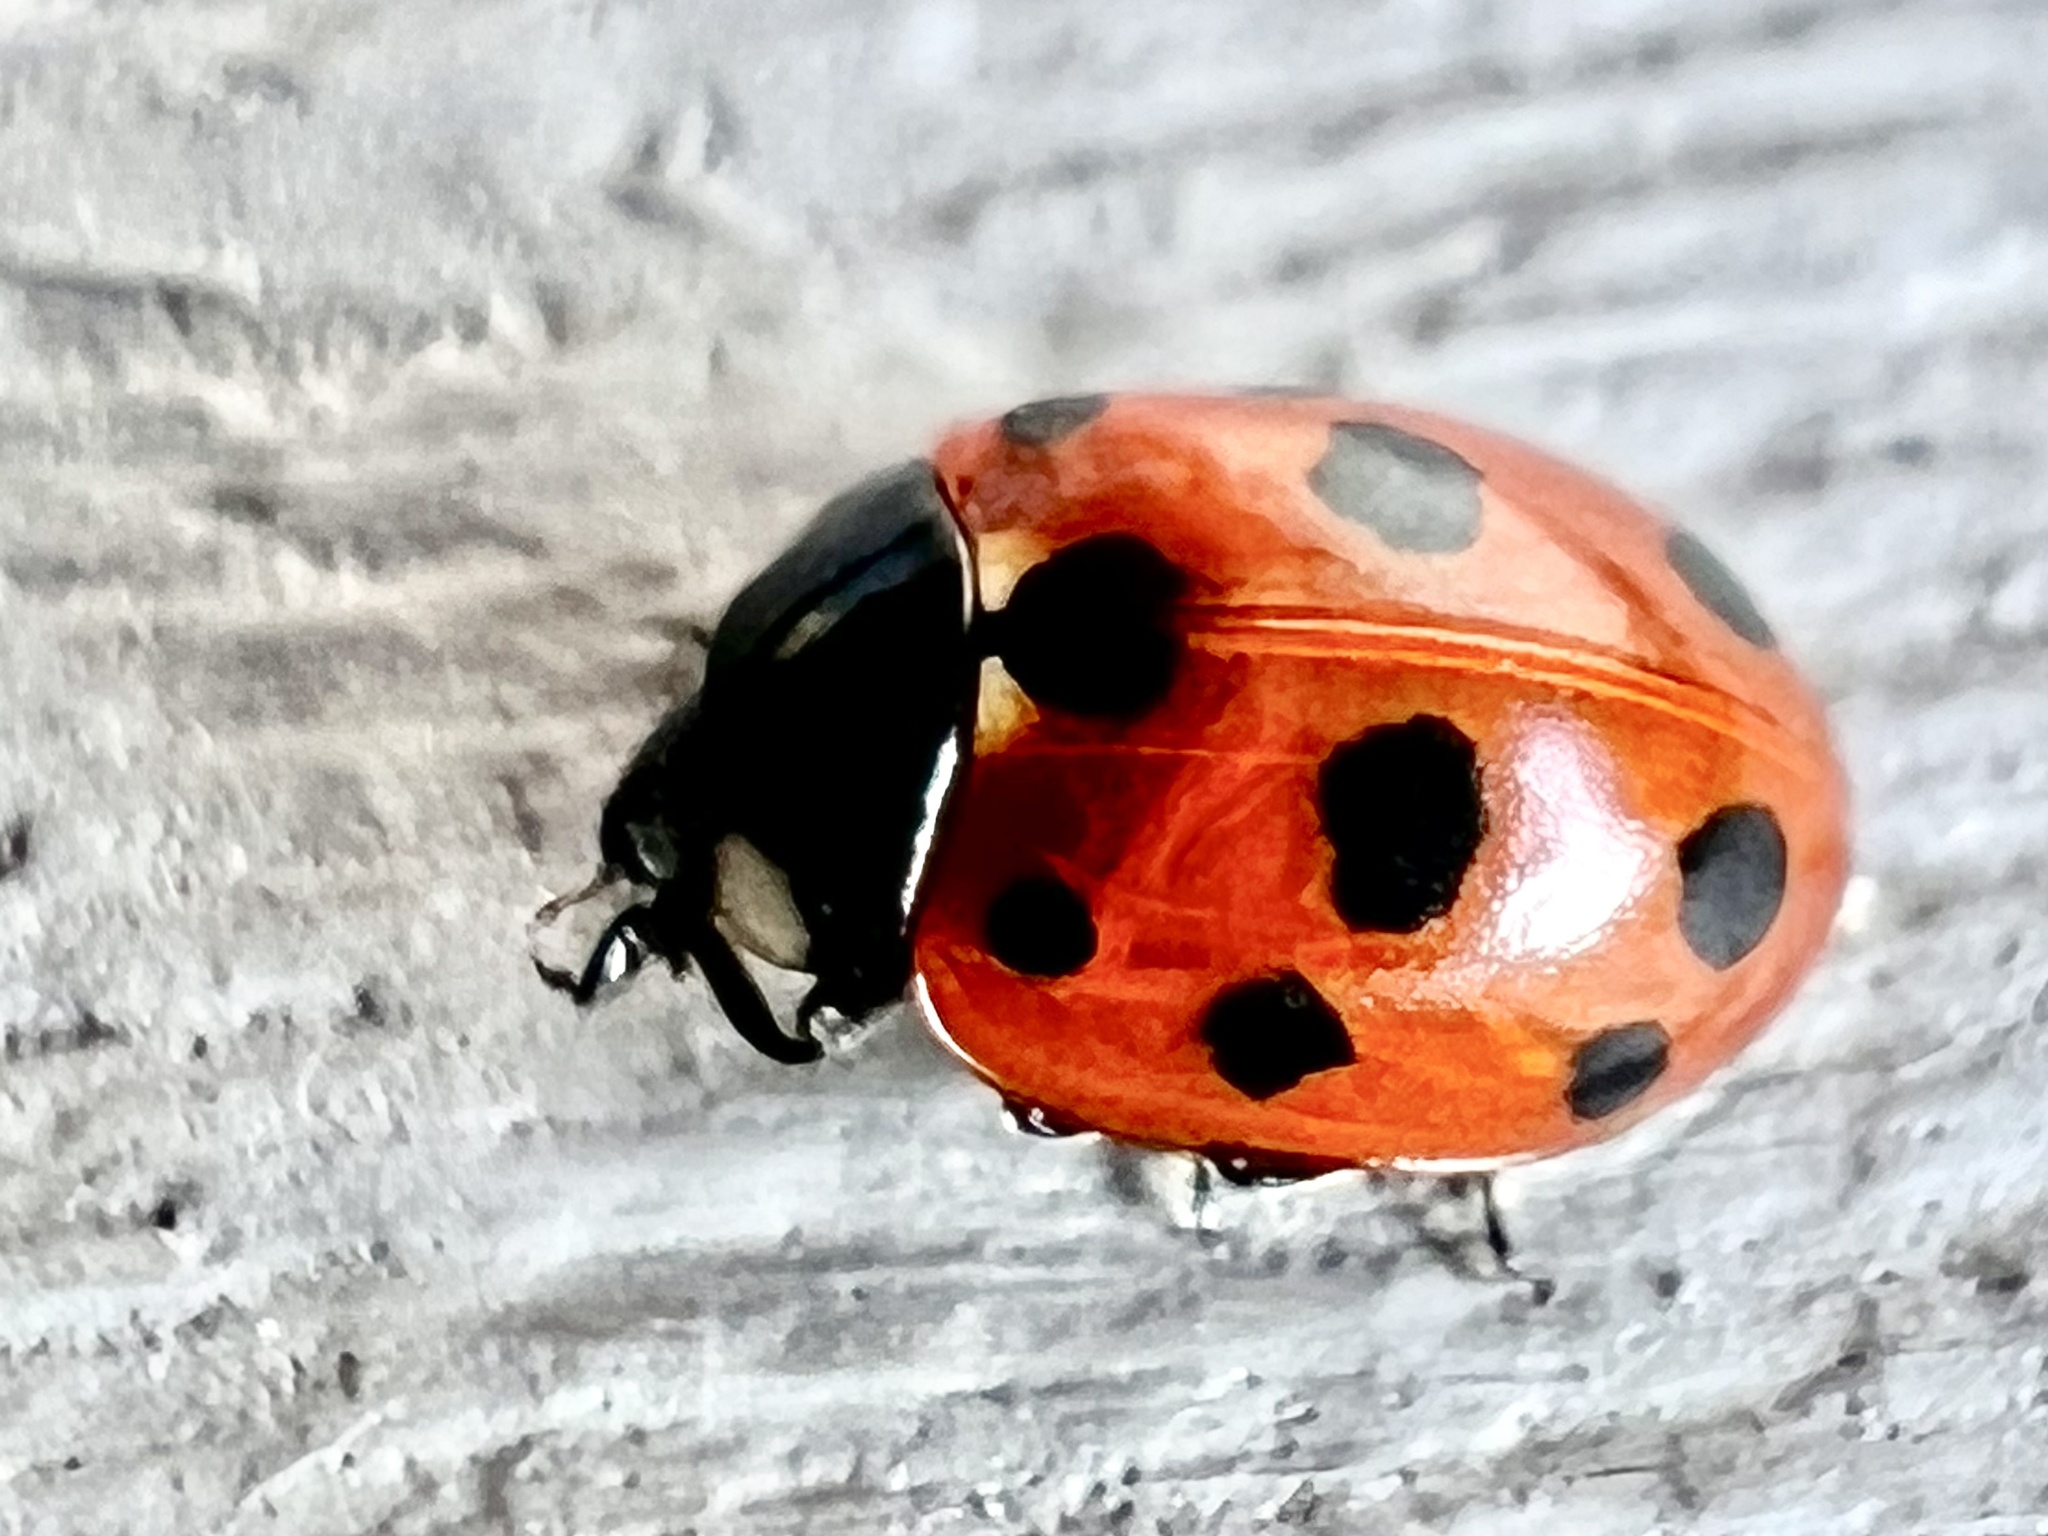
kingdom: Animalia
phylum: Arthropoda
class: Insecta
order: Coleoptera
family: Coccinellidae
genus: Coccinella
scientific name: Coccinella undecimpunctata
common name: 11-spot ladybird
